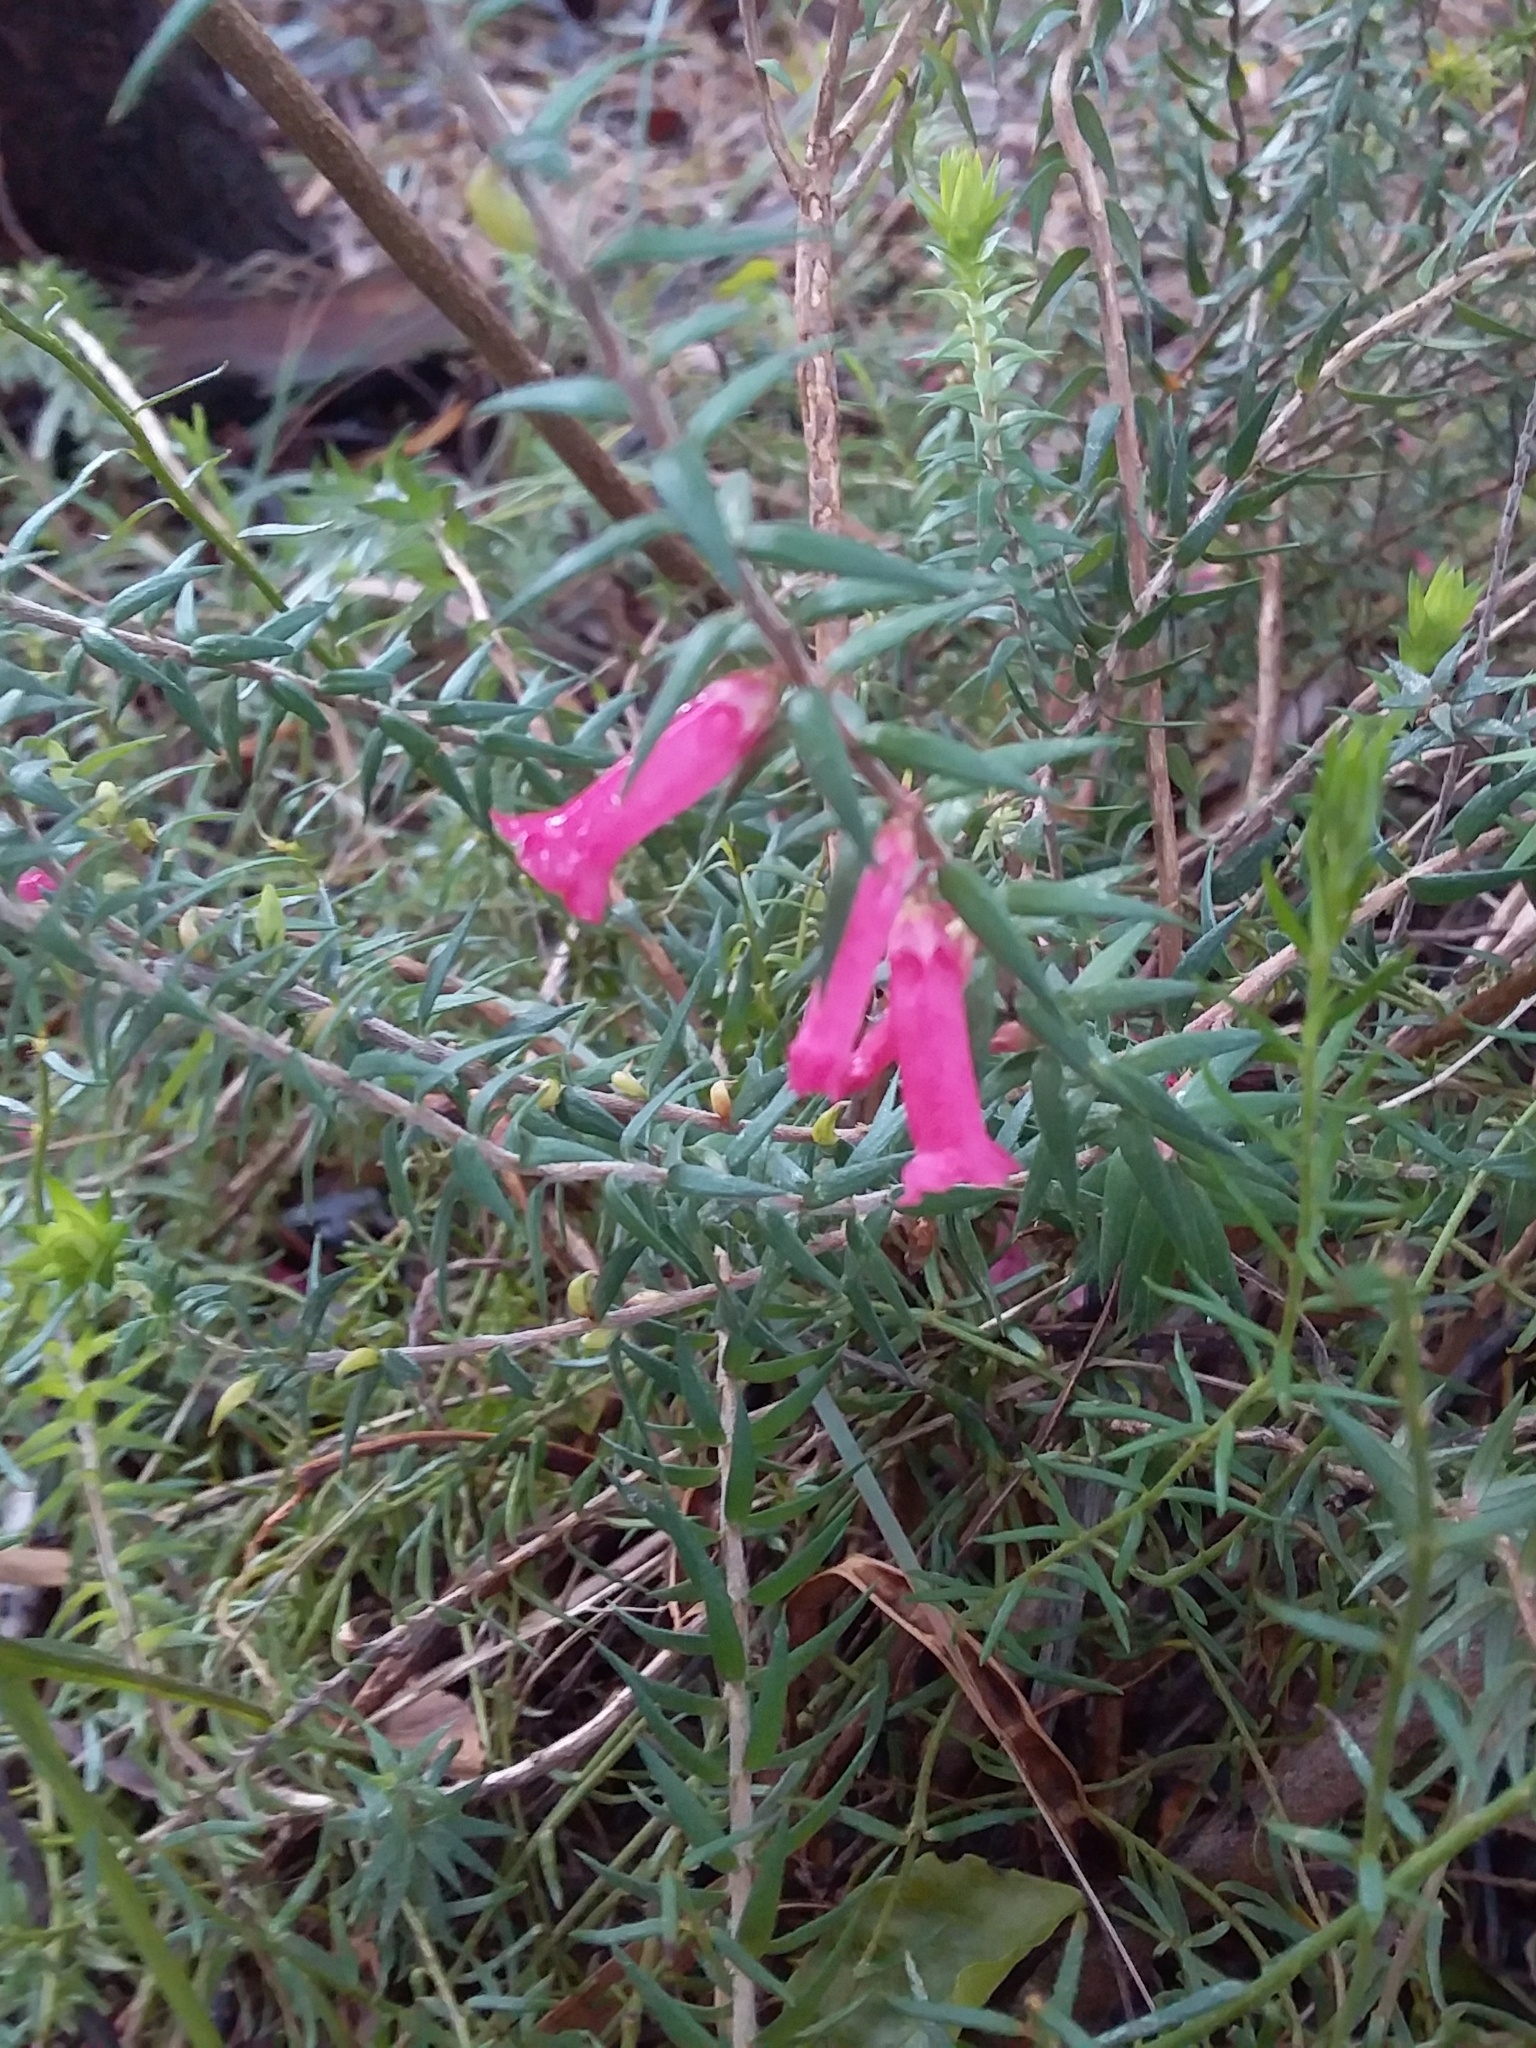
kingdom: Plantae
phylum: Tracheophyta
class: Magnoliopsida
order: Ericales
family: Ericaceae
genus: Epacris
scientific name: Epacris impressa
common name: Common-heath
